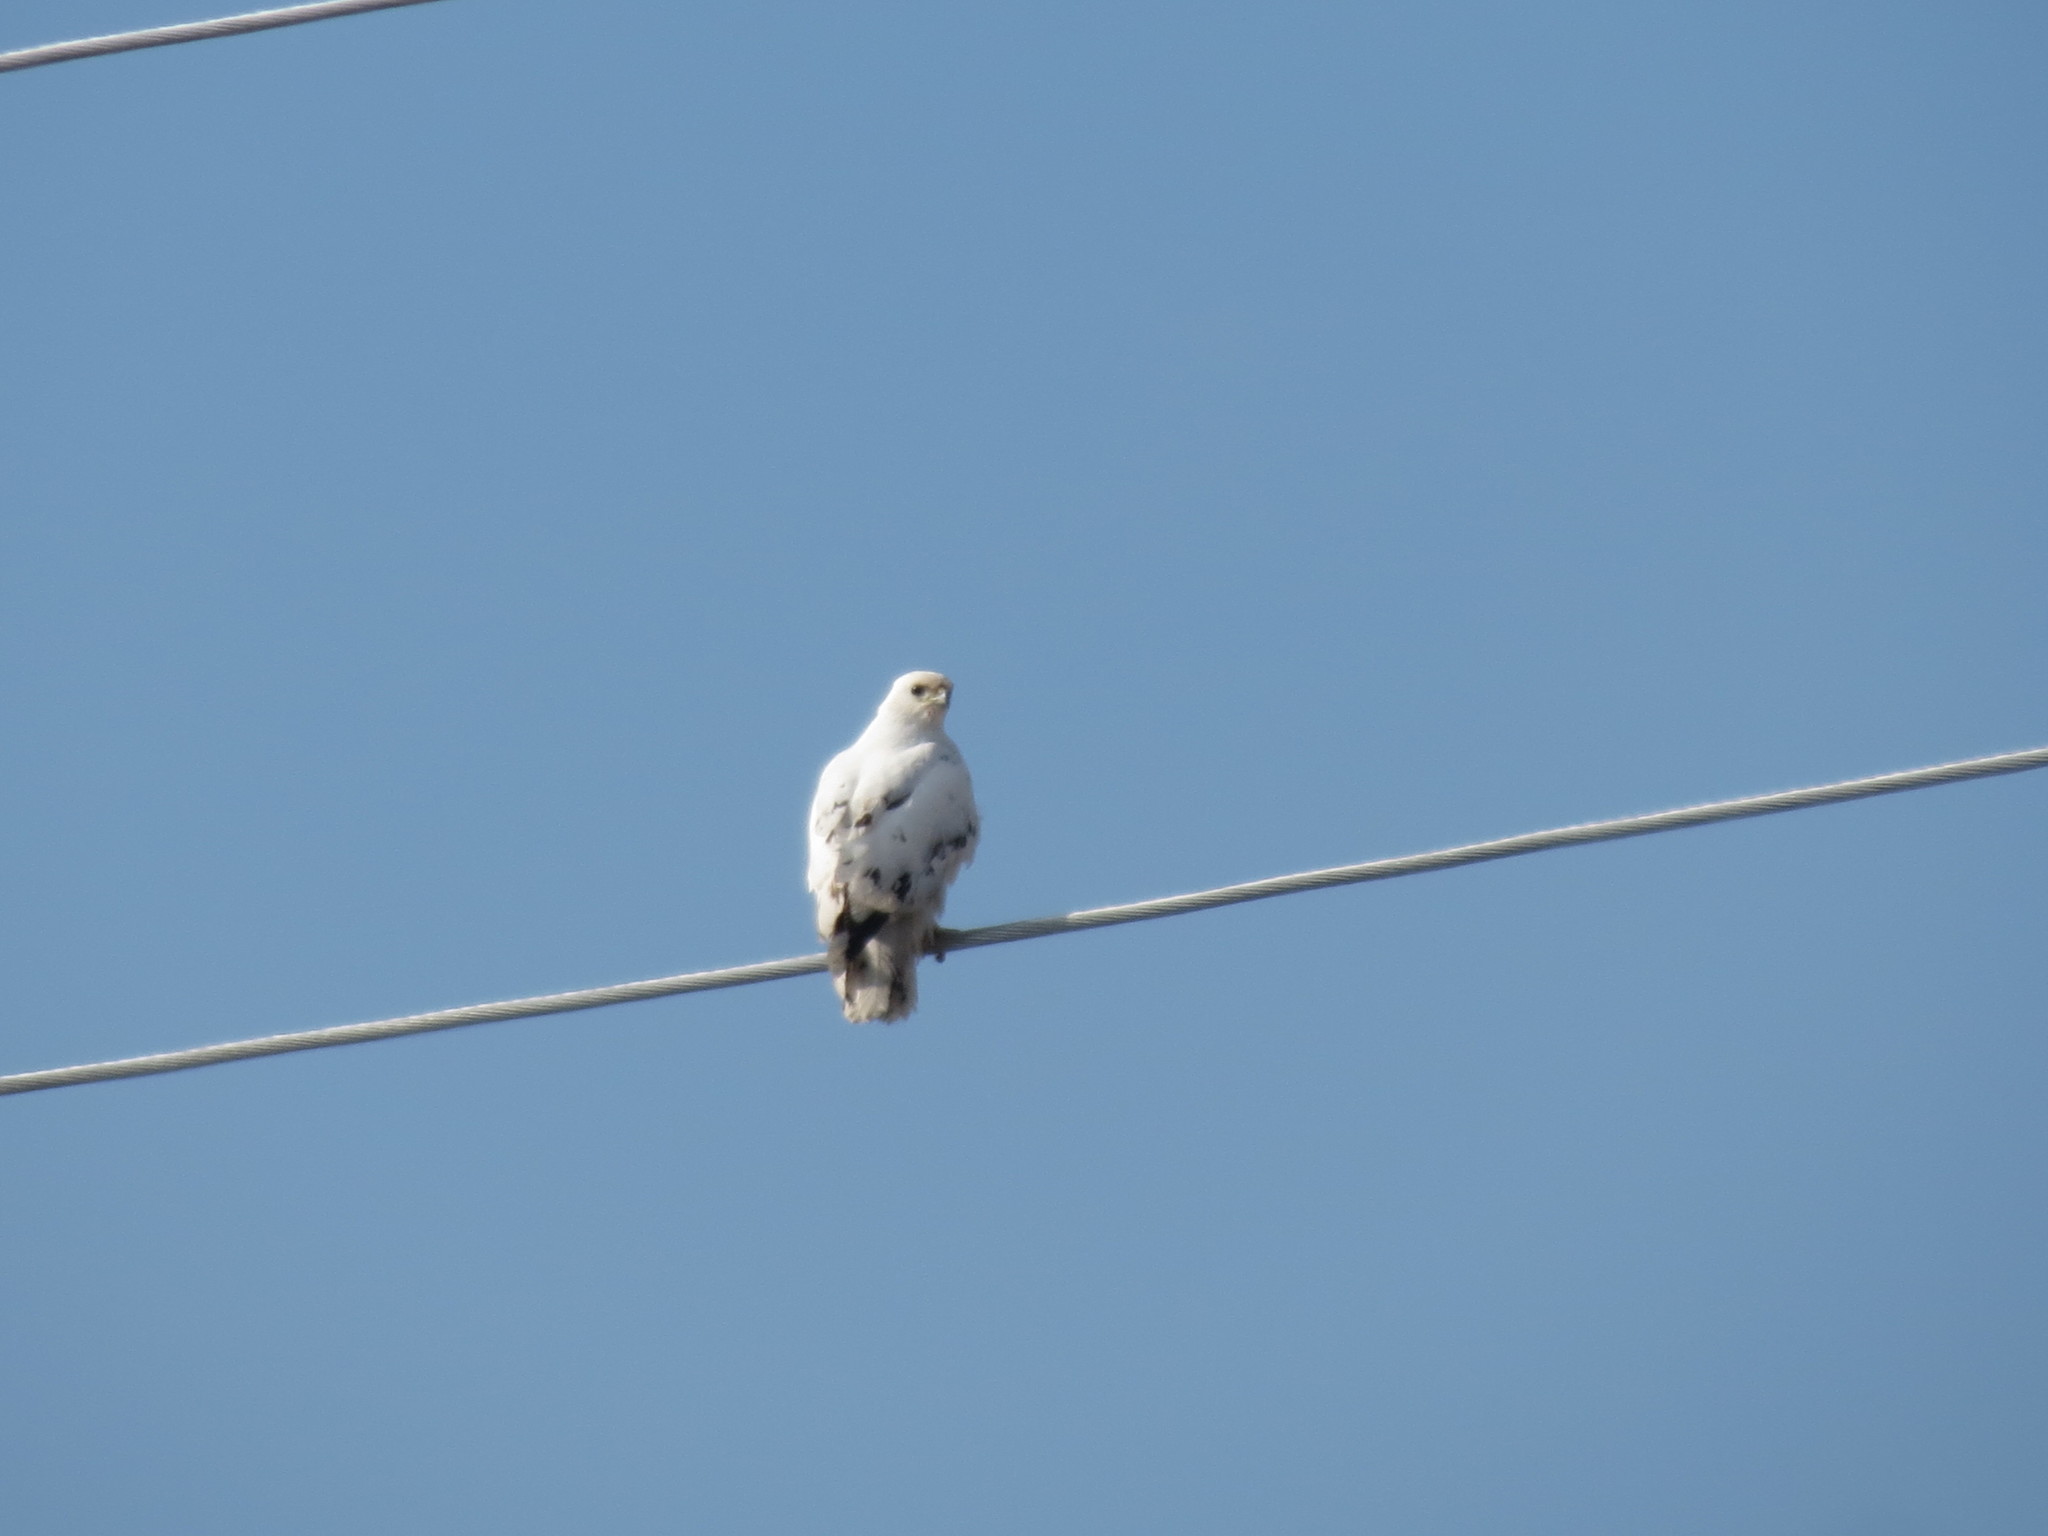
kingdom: Animalia
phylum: Chordata
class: Aves
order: Accipitriformes
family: Accipitridae
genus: Buteo
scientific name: Buteo jamaicensis
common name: Red-tailed hawk
